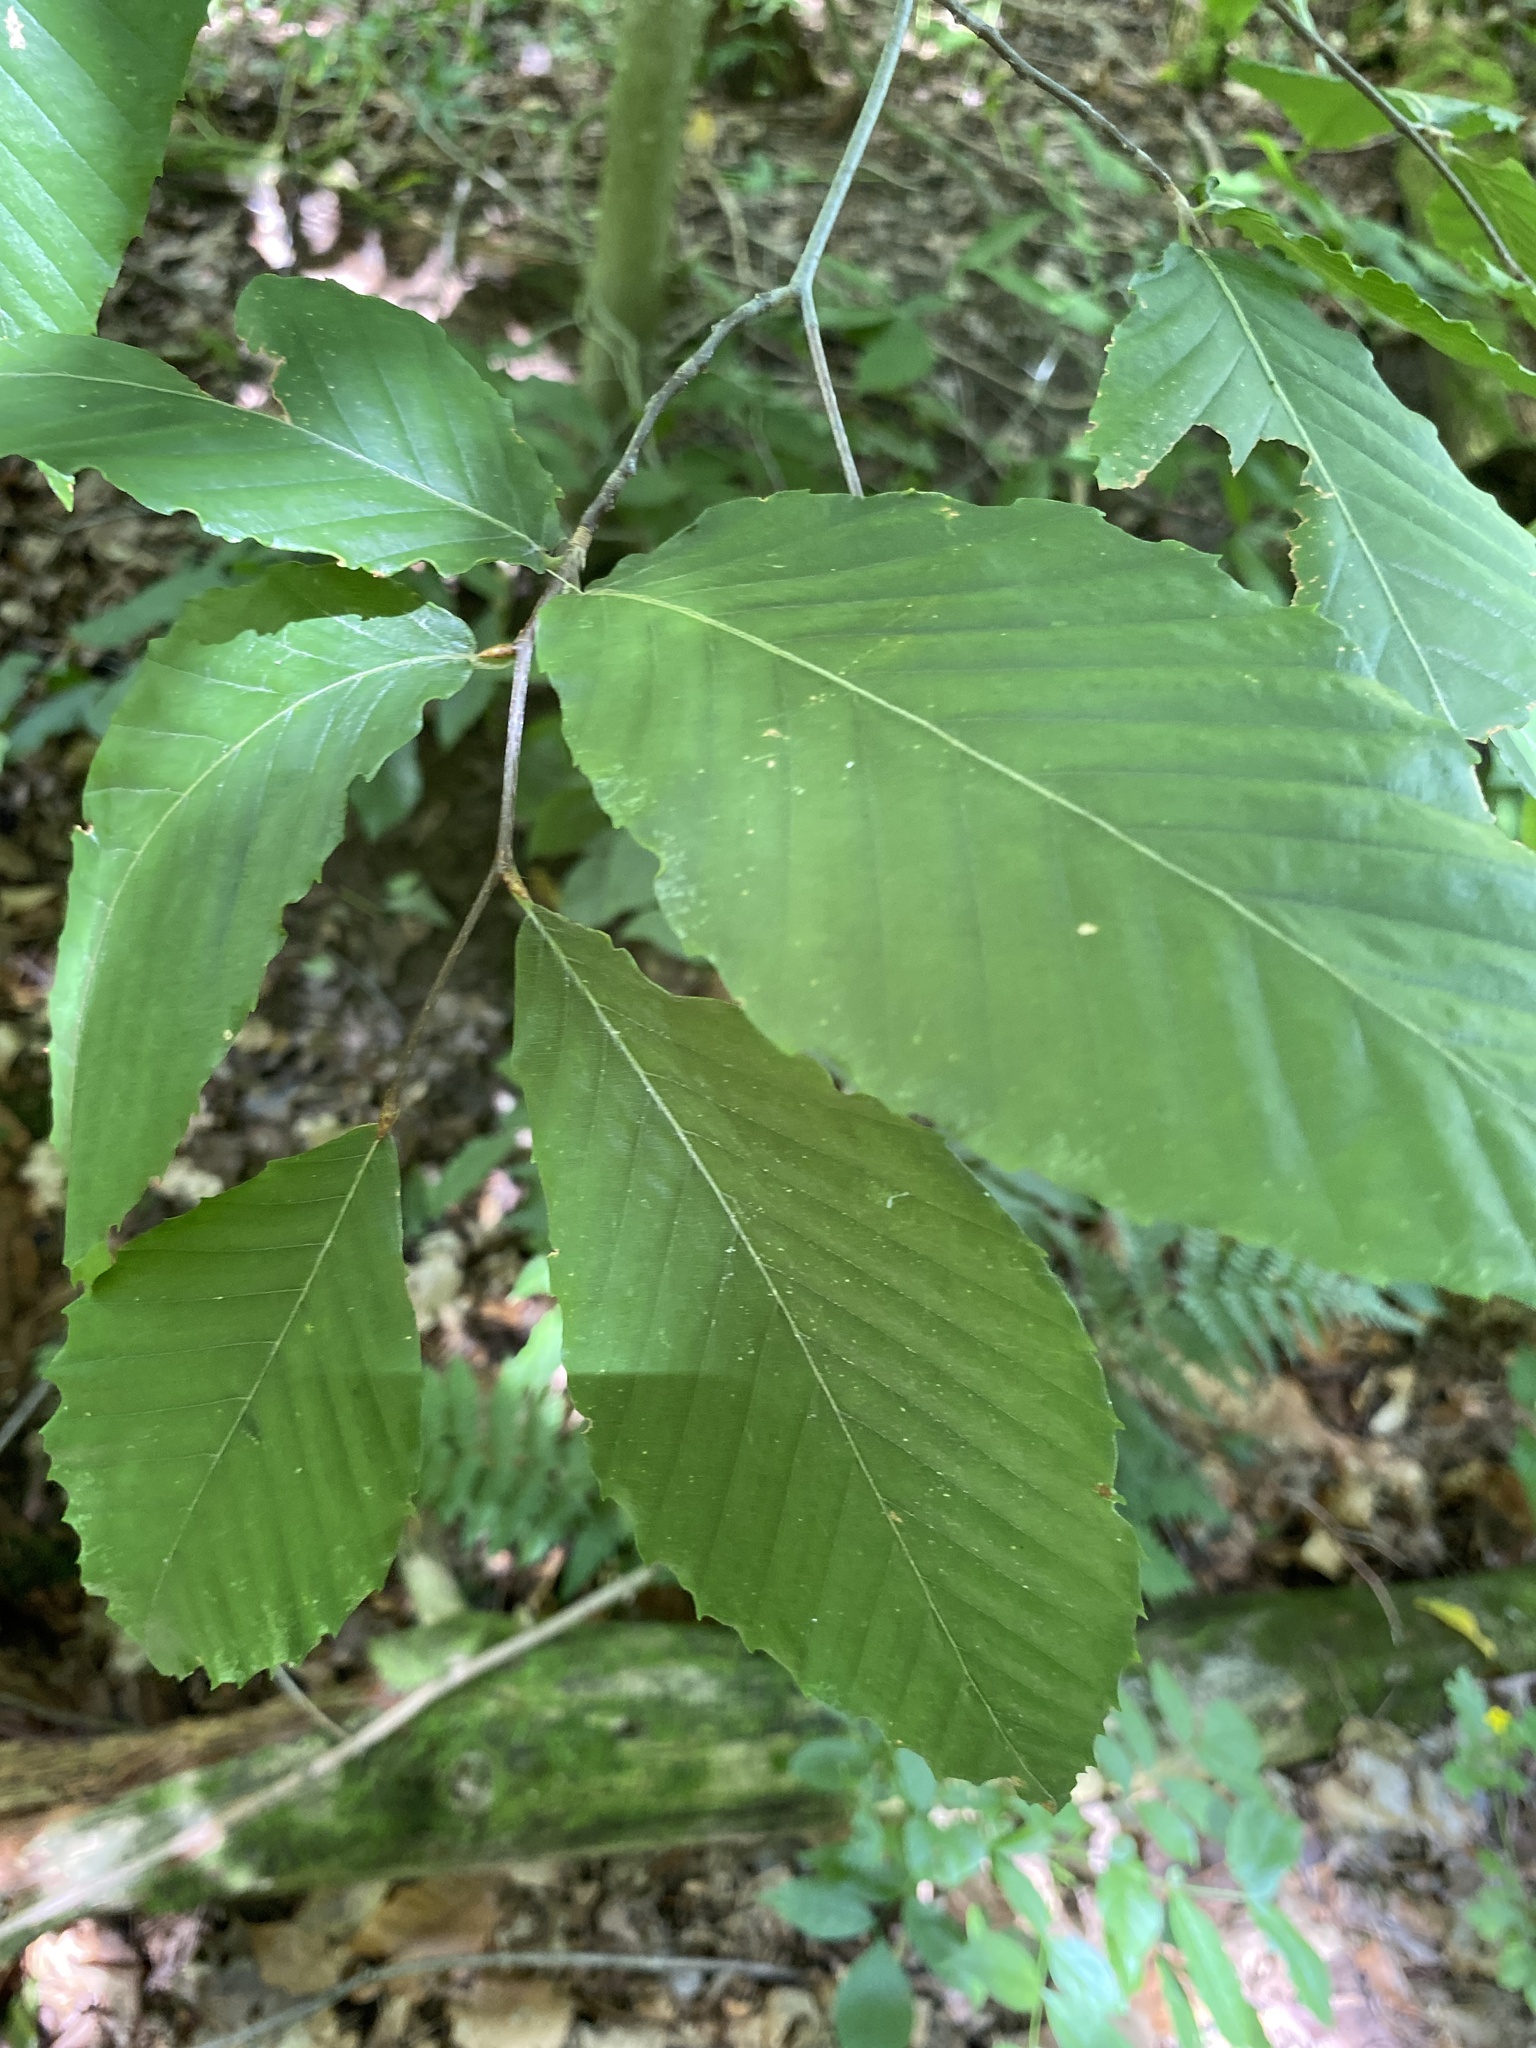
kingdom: Plantae
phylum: Tracheophyta
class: Magnoliopsida
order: Fagales
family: Fagaceae
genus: Fagus
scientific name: Fagus grandifolia
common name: American beech
